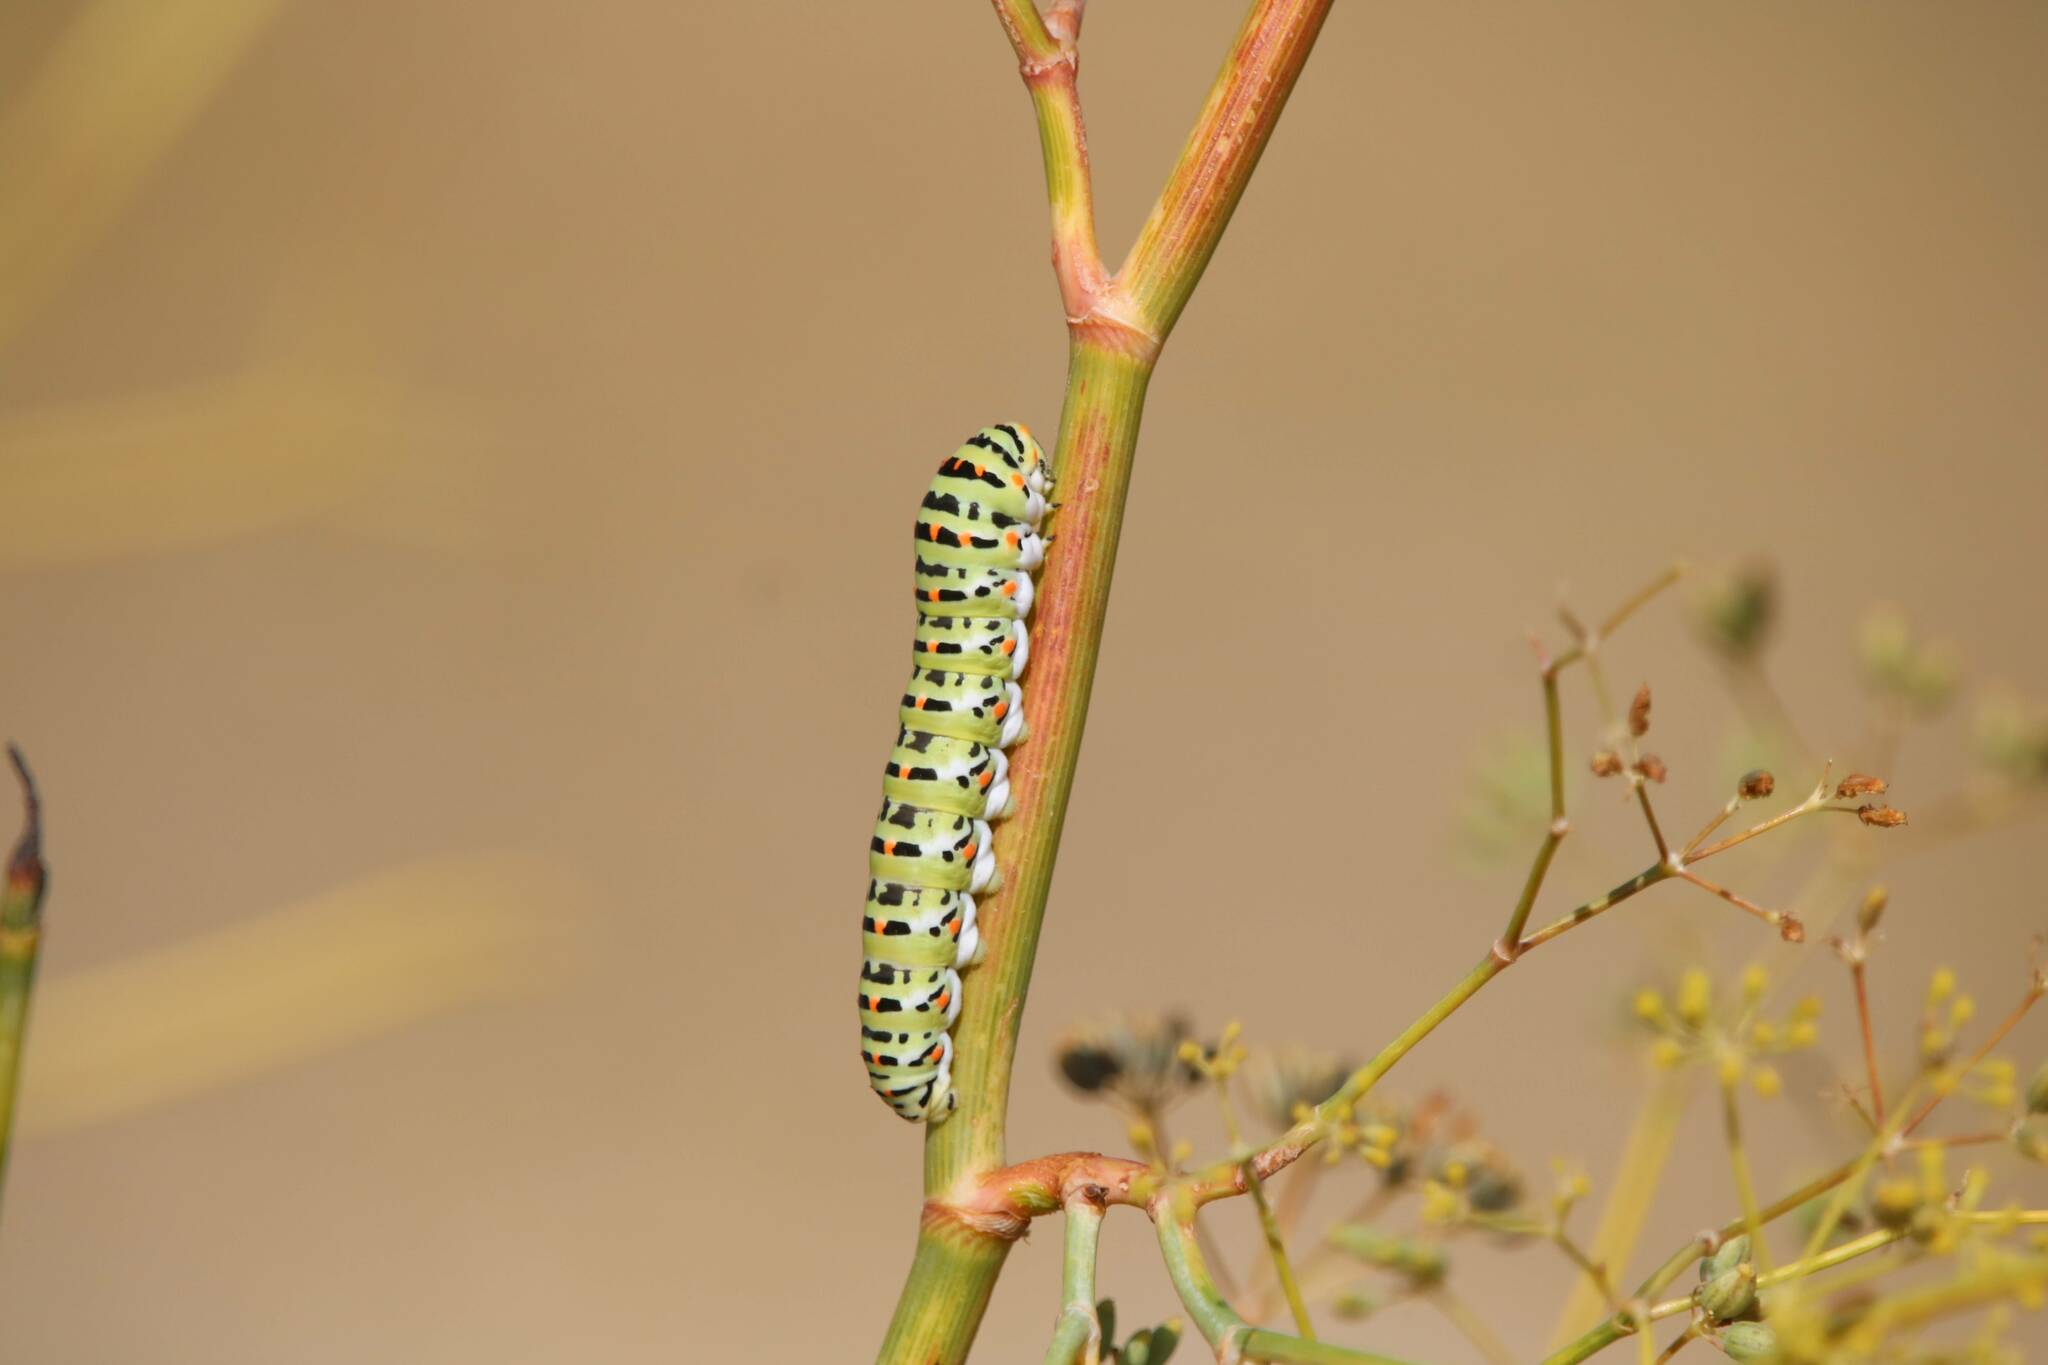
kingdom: Animalia
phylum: Arthropoda
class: Insecta
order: Lepidoptera
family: Papilionidae
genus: Papilio
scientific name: Papilio machaon
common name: Swallowtail
